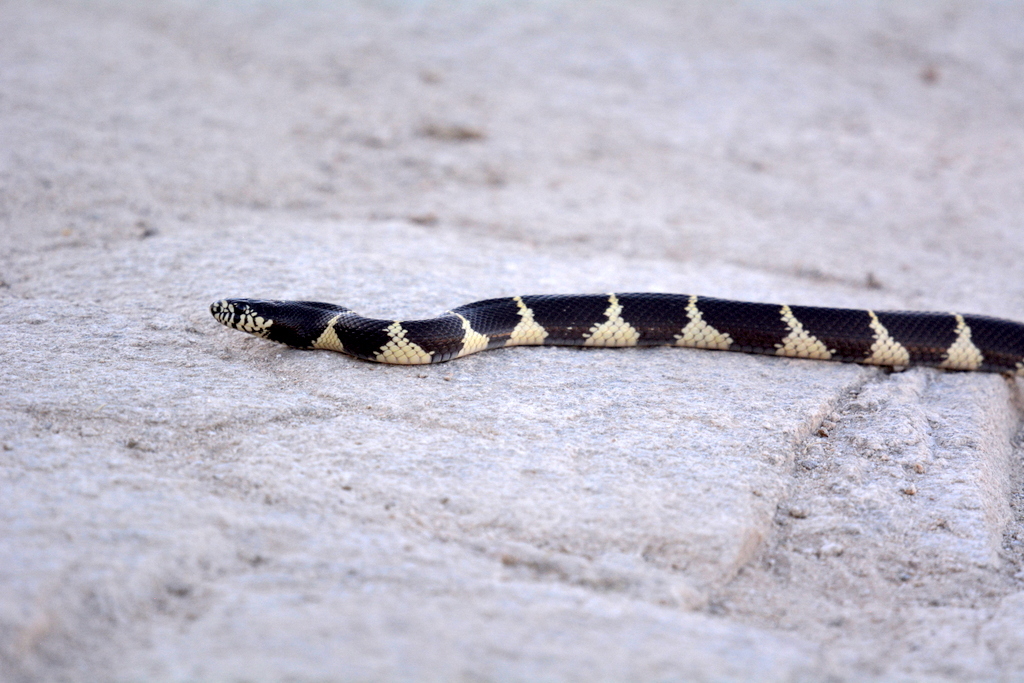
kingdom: Animalia
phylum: Chordata
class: Squamata
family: Colubridae
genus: Lampropeltis
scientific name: Lampropeltis californiae
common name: California kingsnake
